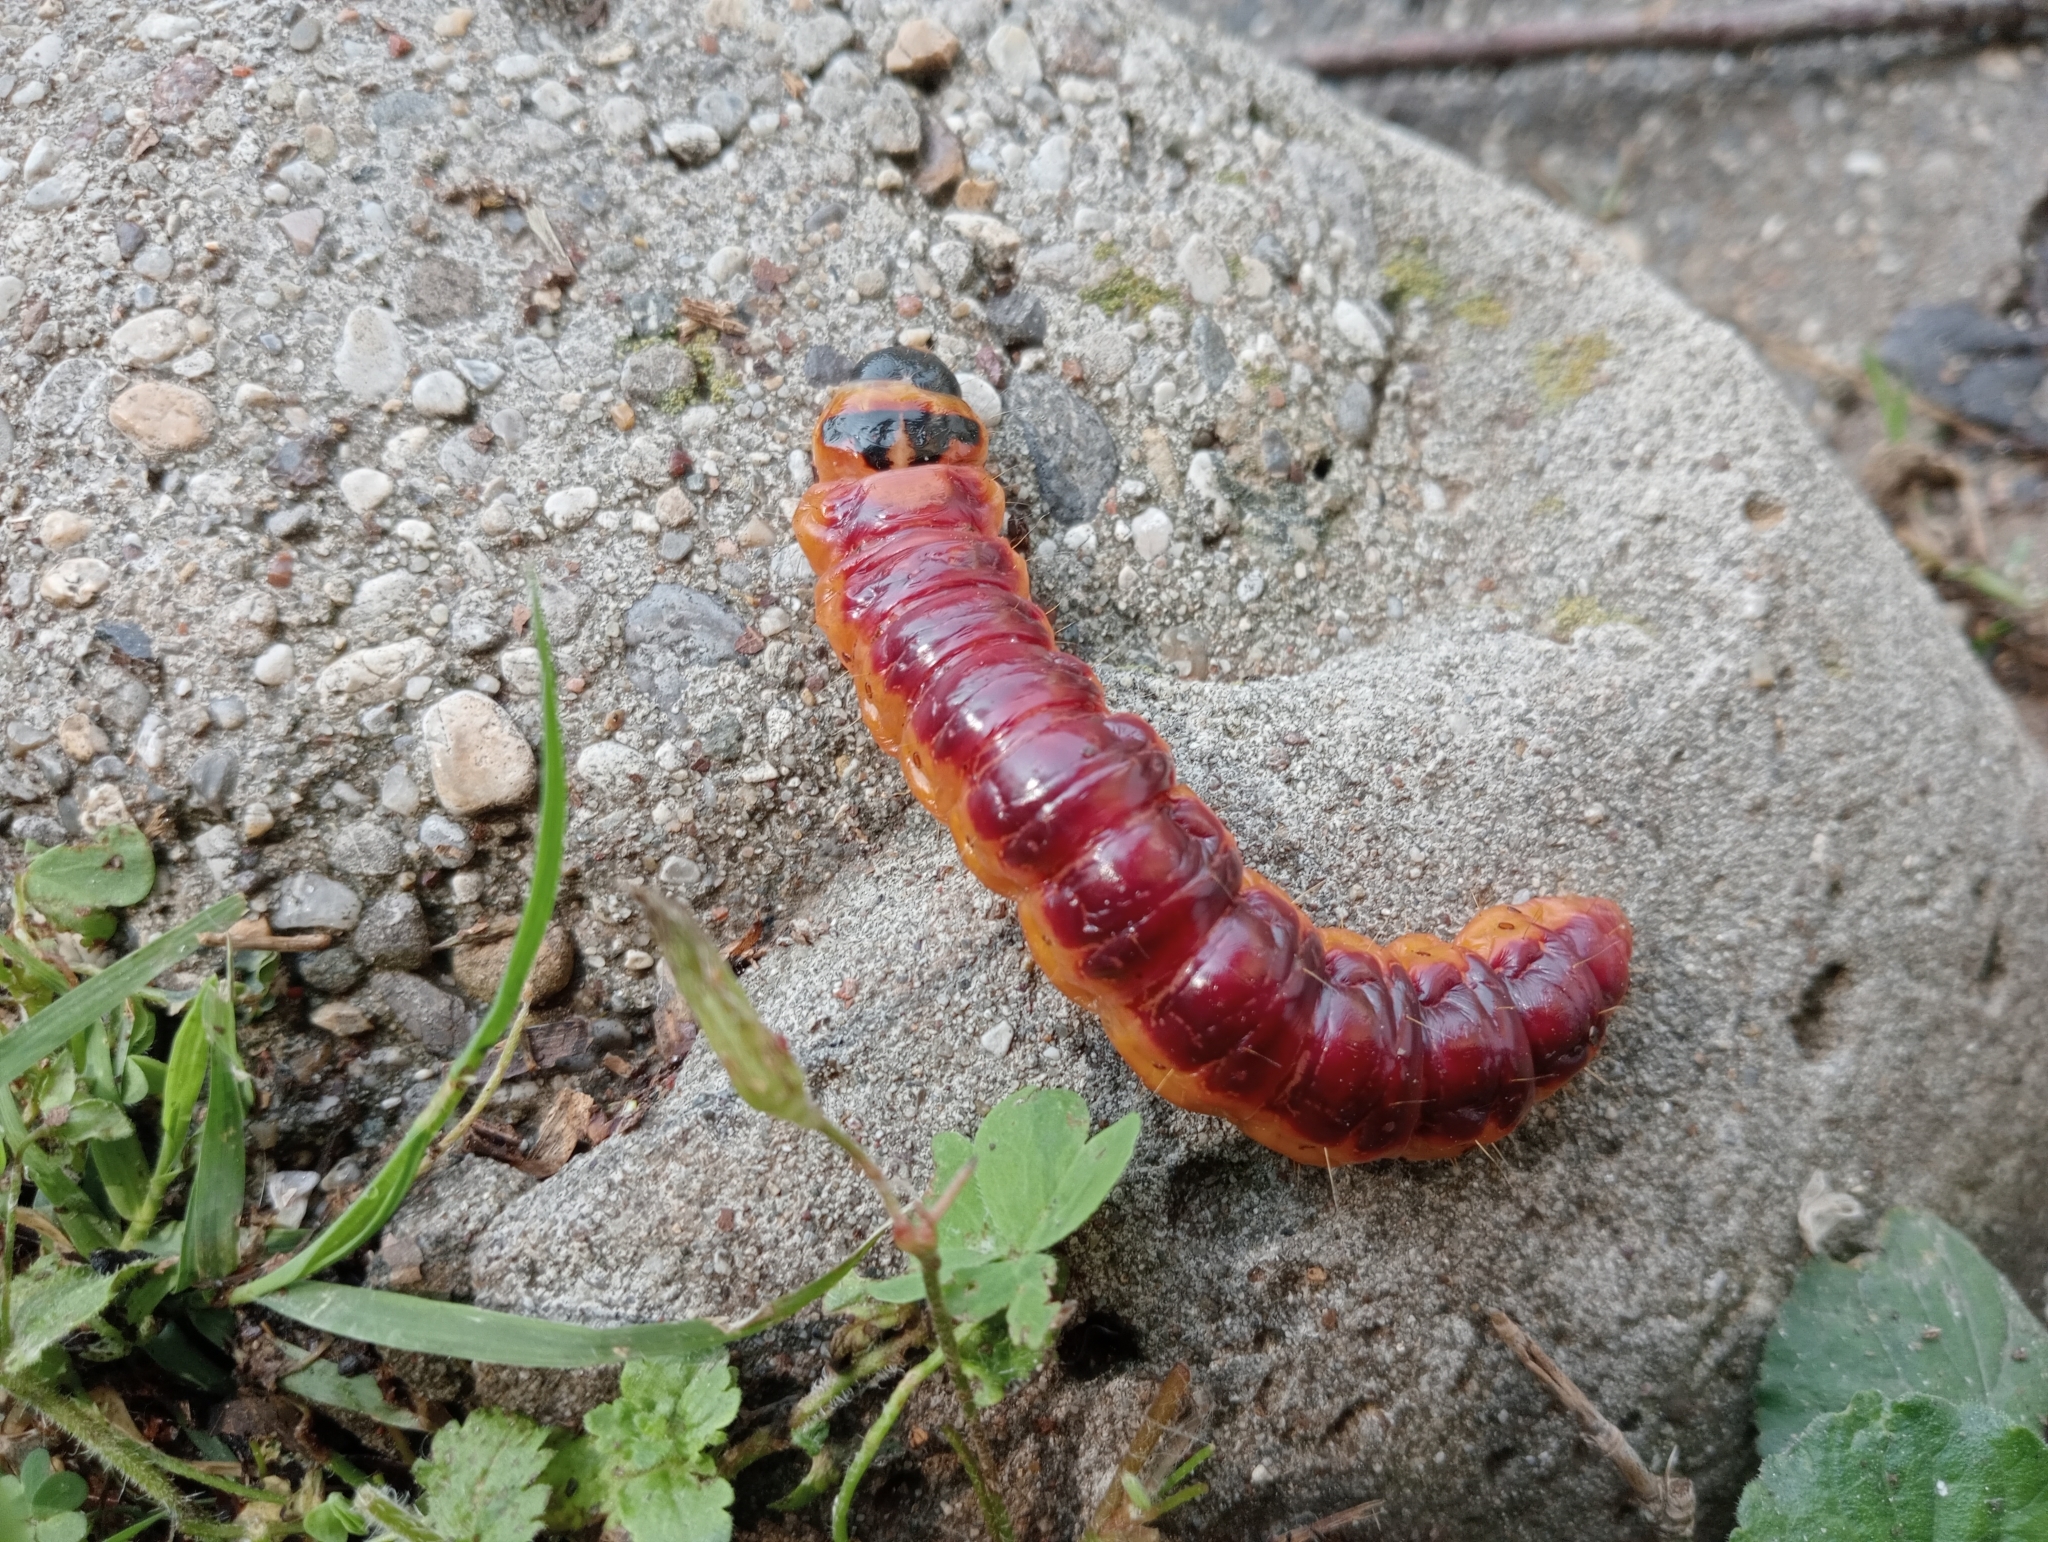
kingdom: Animalia
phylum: Arthropoda
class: Insecta
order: Lepidoptera
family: Cossidae
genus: Cossus
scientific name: Cossus cossus
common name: Goat moth
